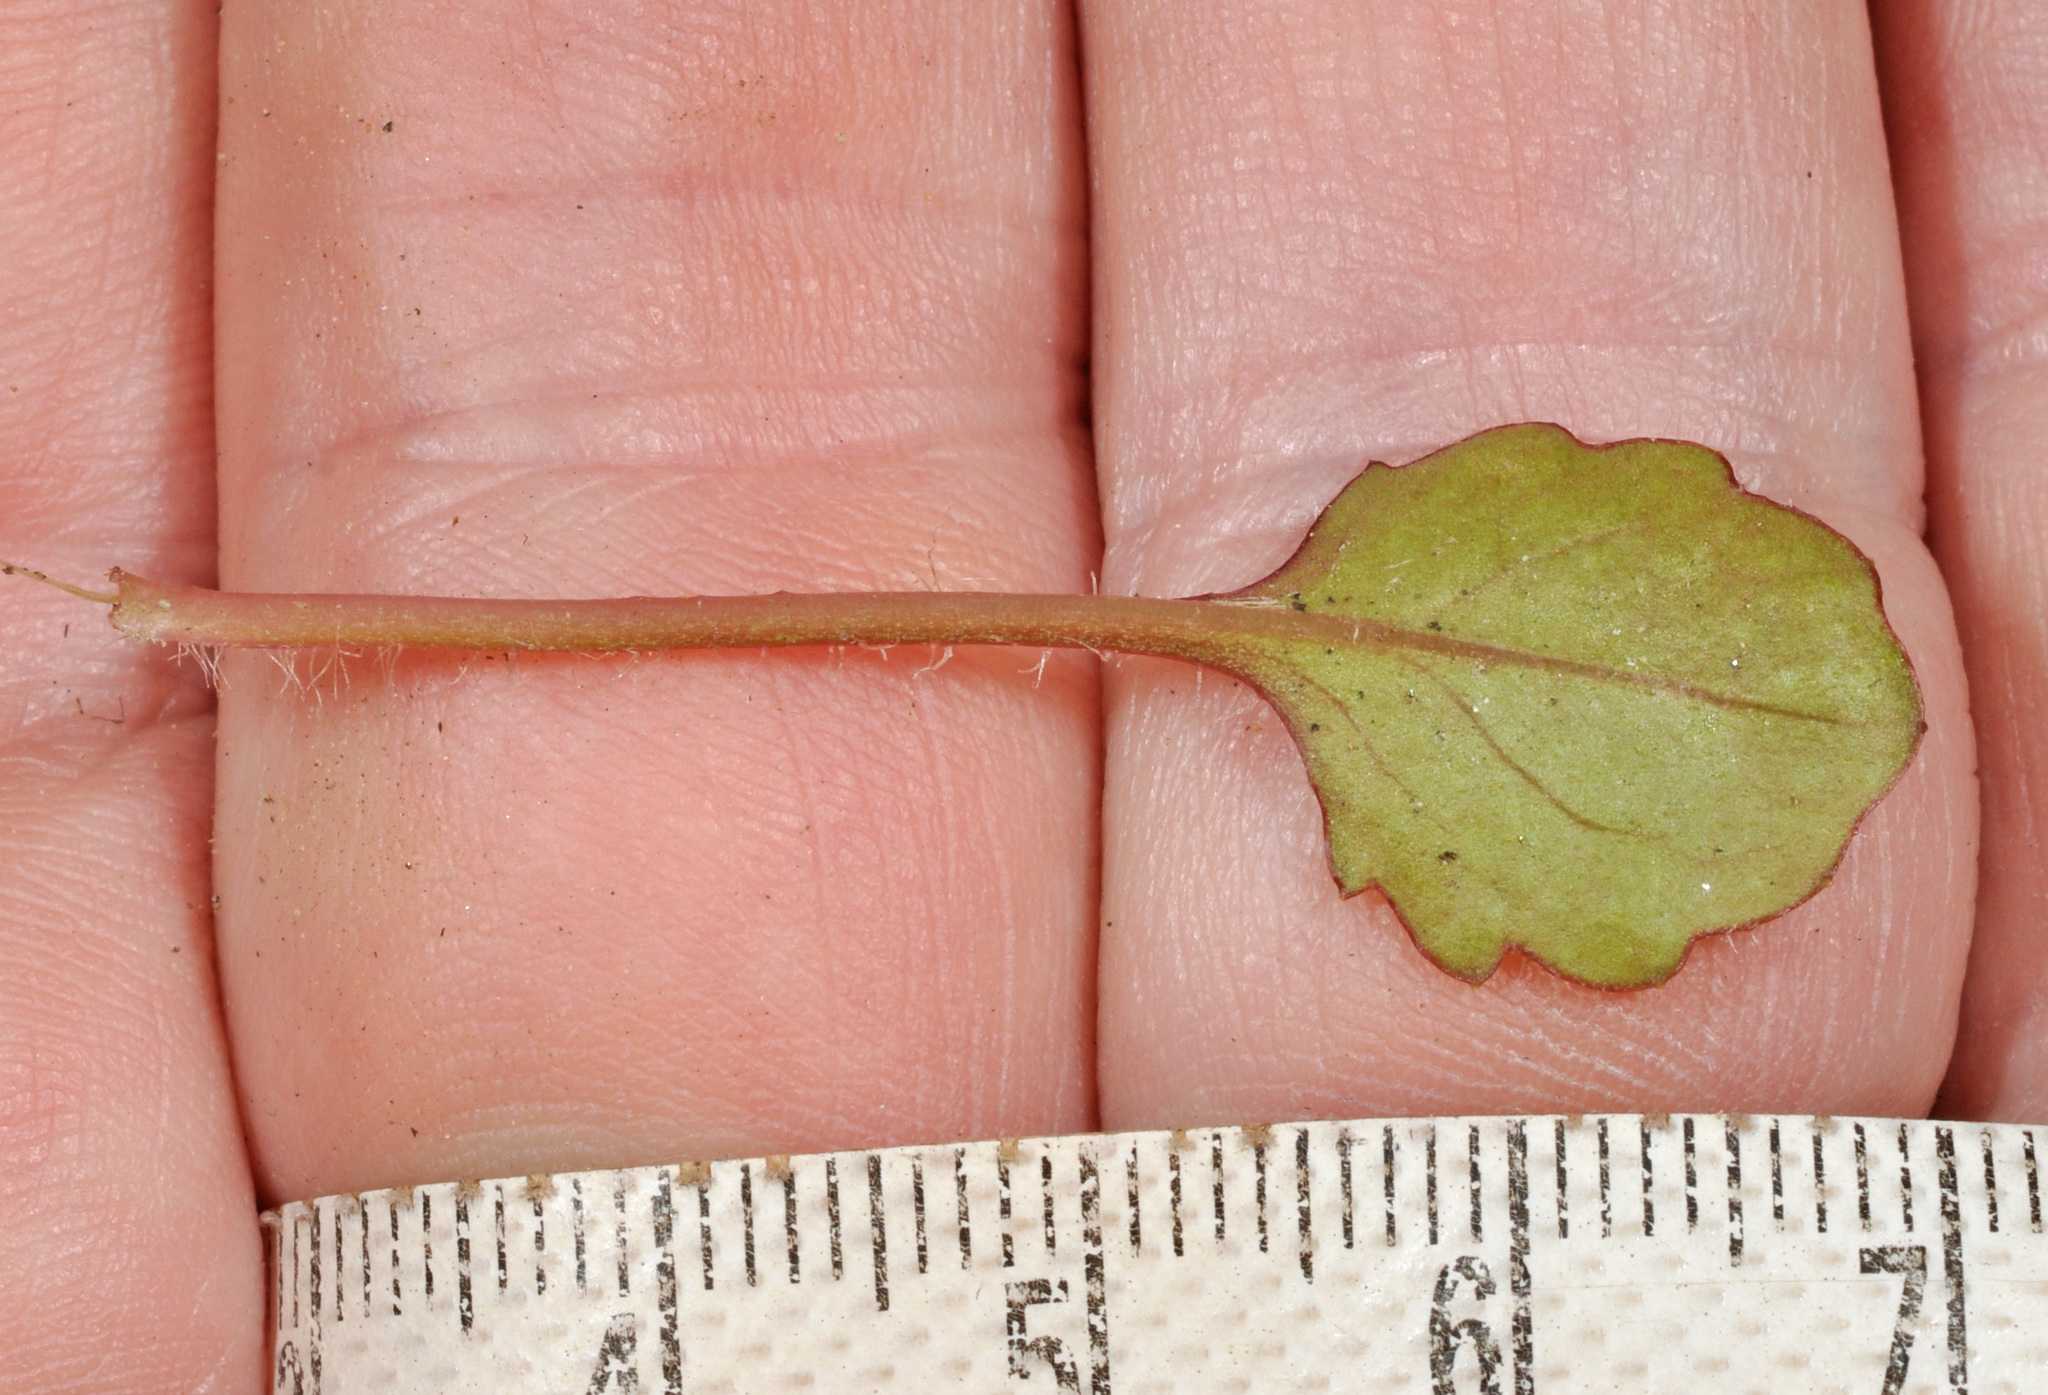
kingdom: Plantae
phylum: Tracheophyta
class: Magnoliopsida
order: Asterales
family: Asteraceae
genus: Lagenophora
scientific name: Lagenophora pumila
